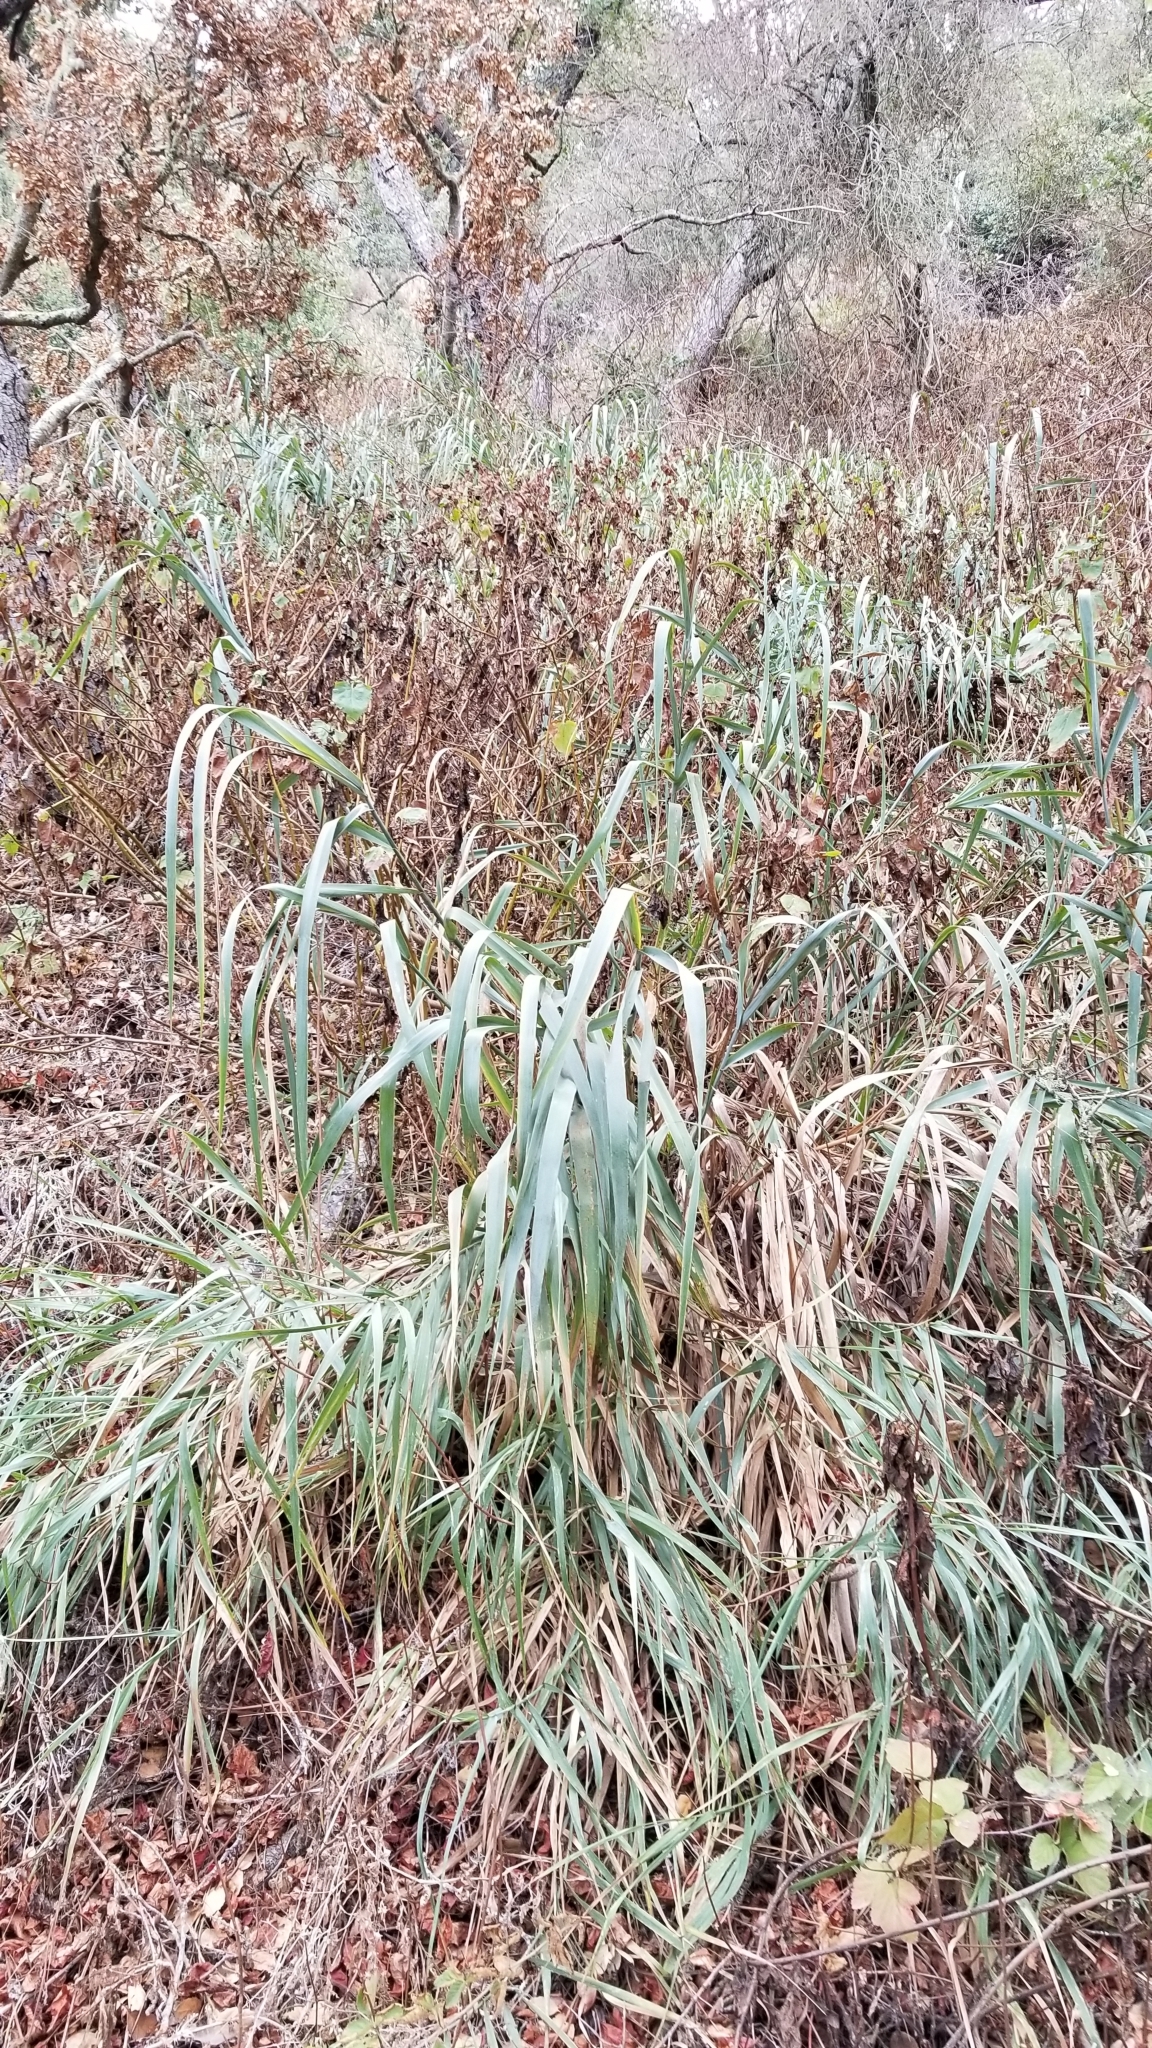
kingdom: Plantae
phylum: Tracheophyta
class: Liliopsida
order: Poales
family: Poaceae
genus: Arundo
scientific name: Arundo donax
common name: Giant reed
